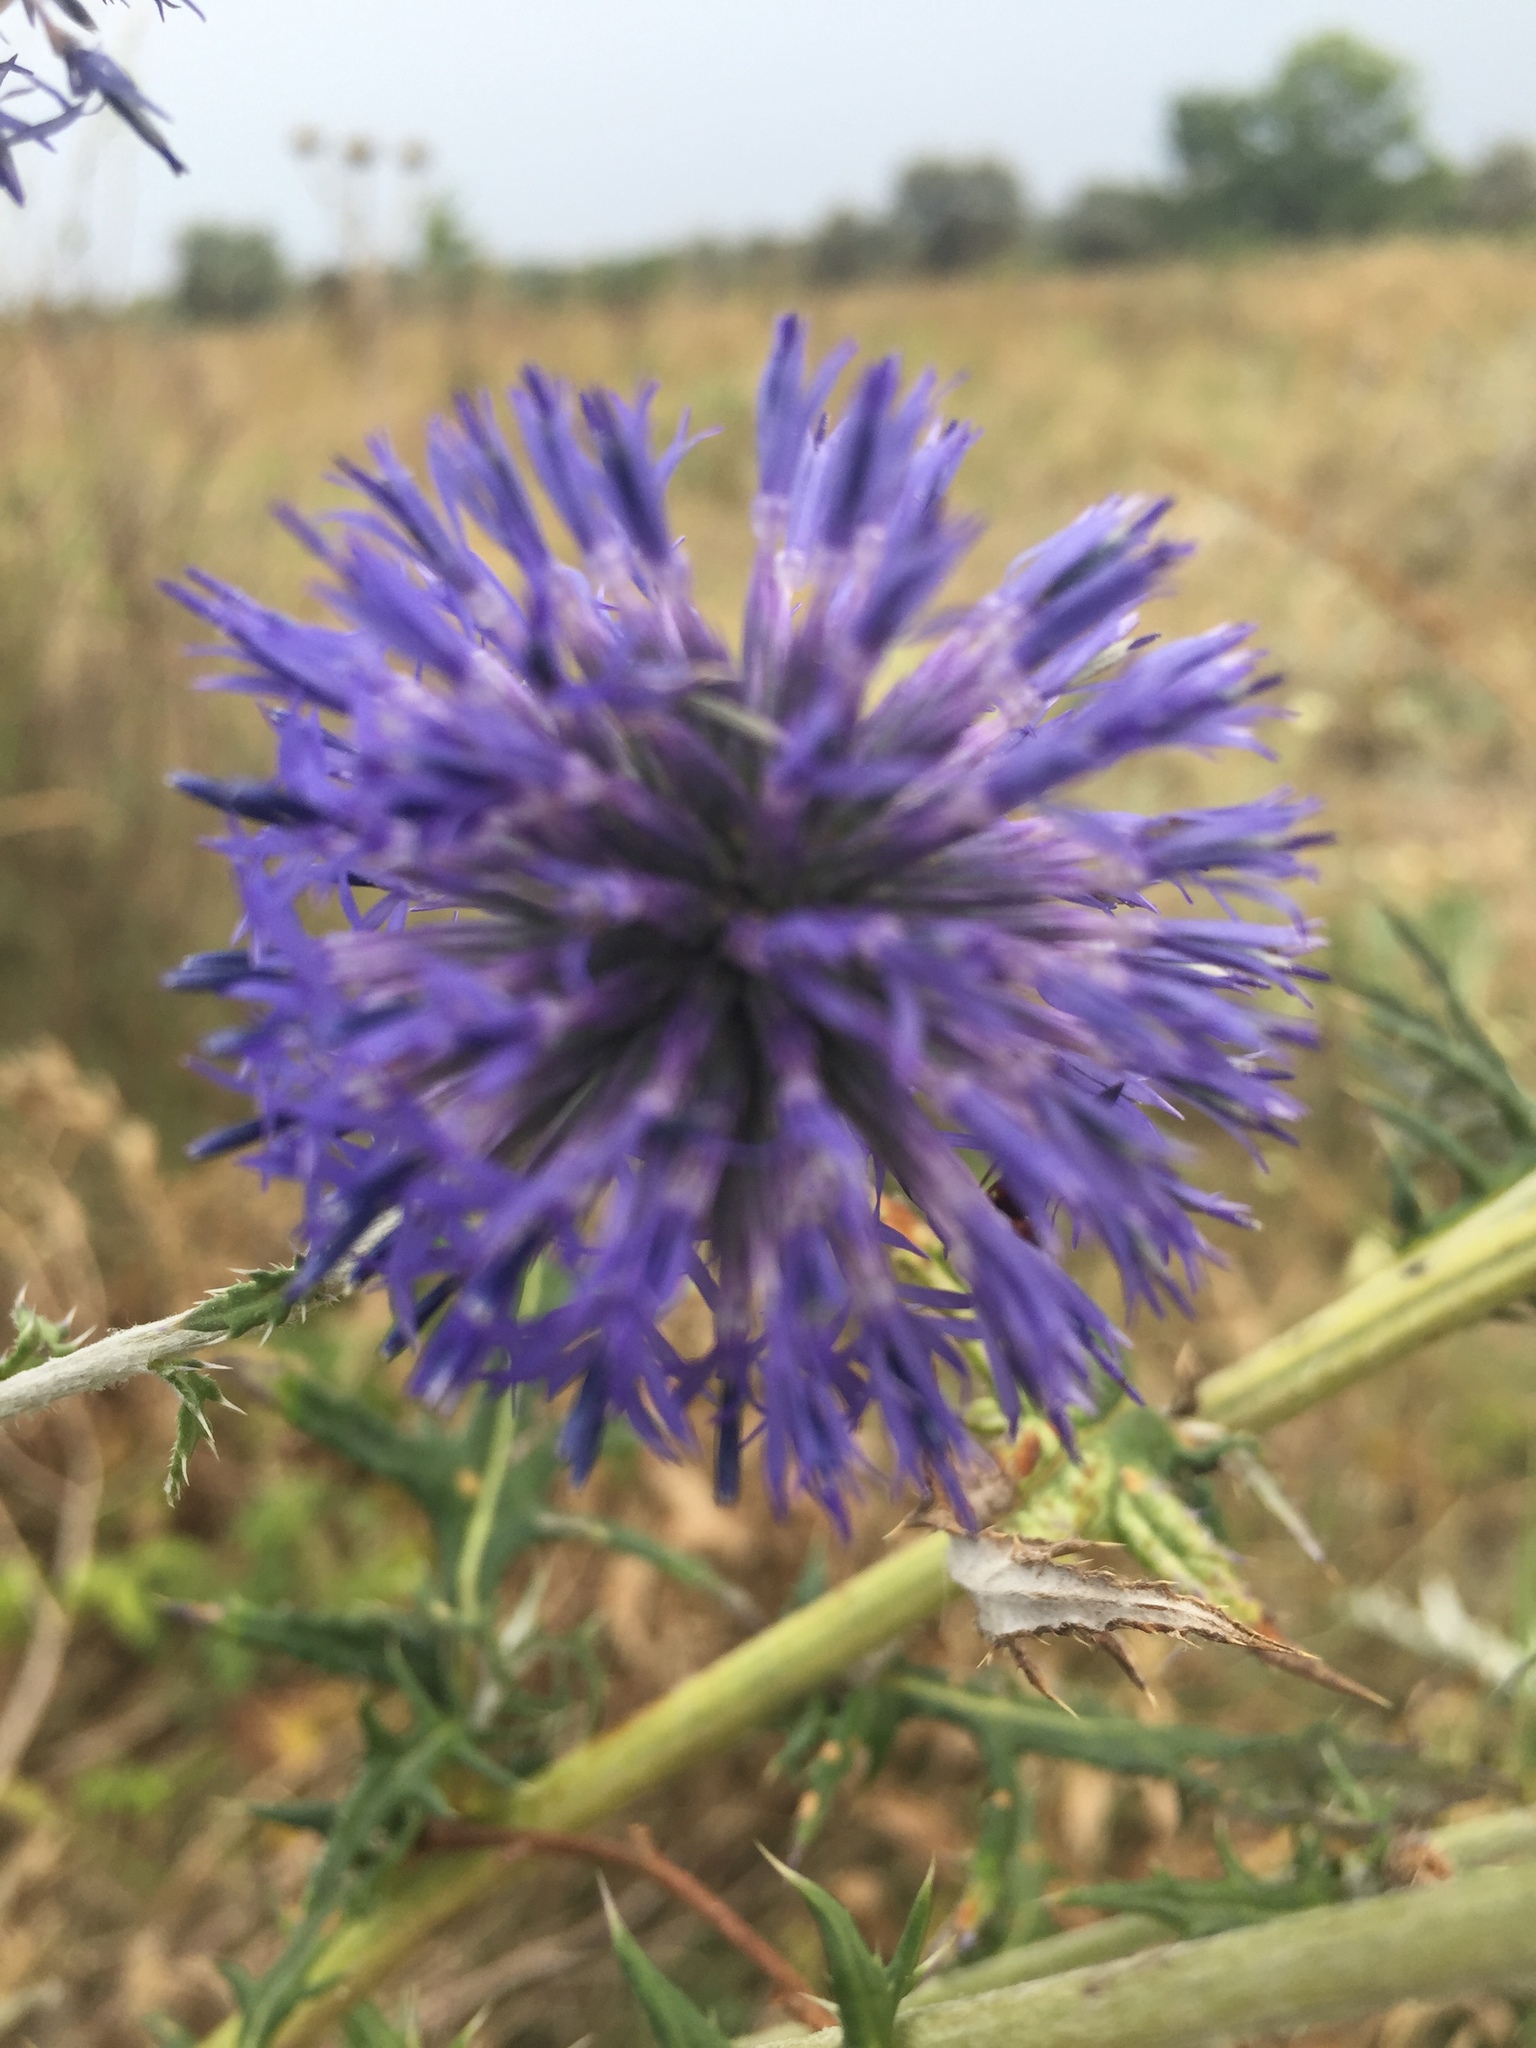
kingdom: Plantae
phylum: Tracheophyta
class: Magnoliopsida
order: Asterales
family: Asteraceae
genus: Echinops
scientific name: Echinops ritro
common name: Globe thistle
